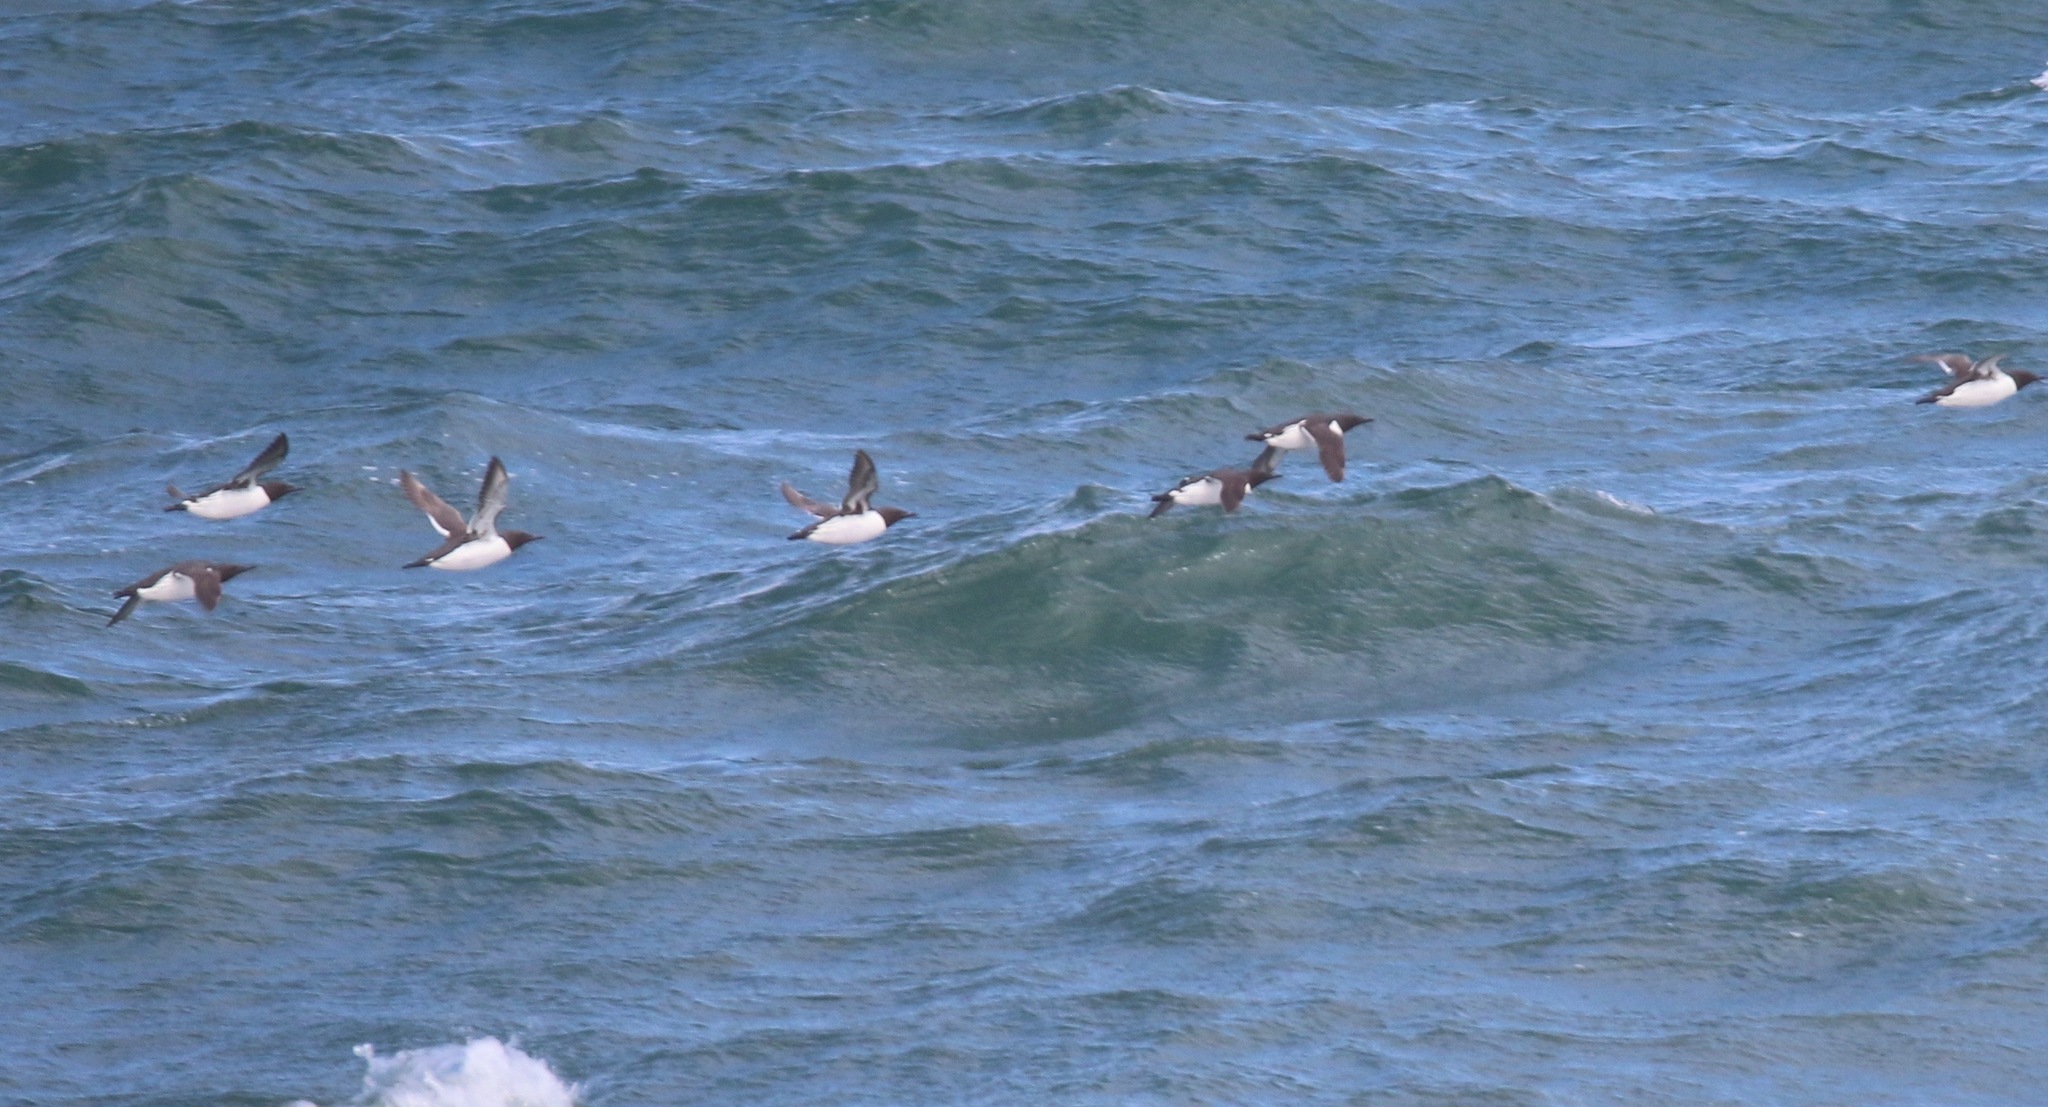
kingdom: Animalia
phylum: Chordata
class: Aves
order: Charadriiformes
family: Alcidae
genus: Uria
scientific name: Uria aalge
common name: Common murre
